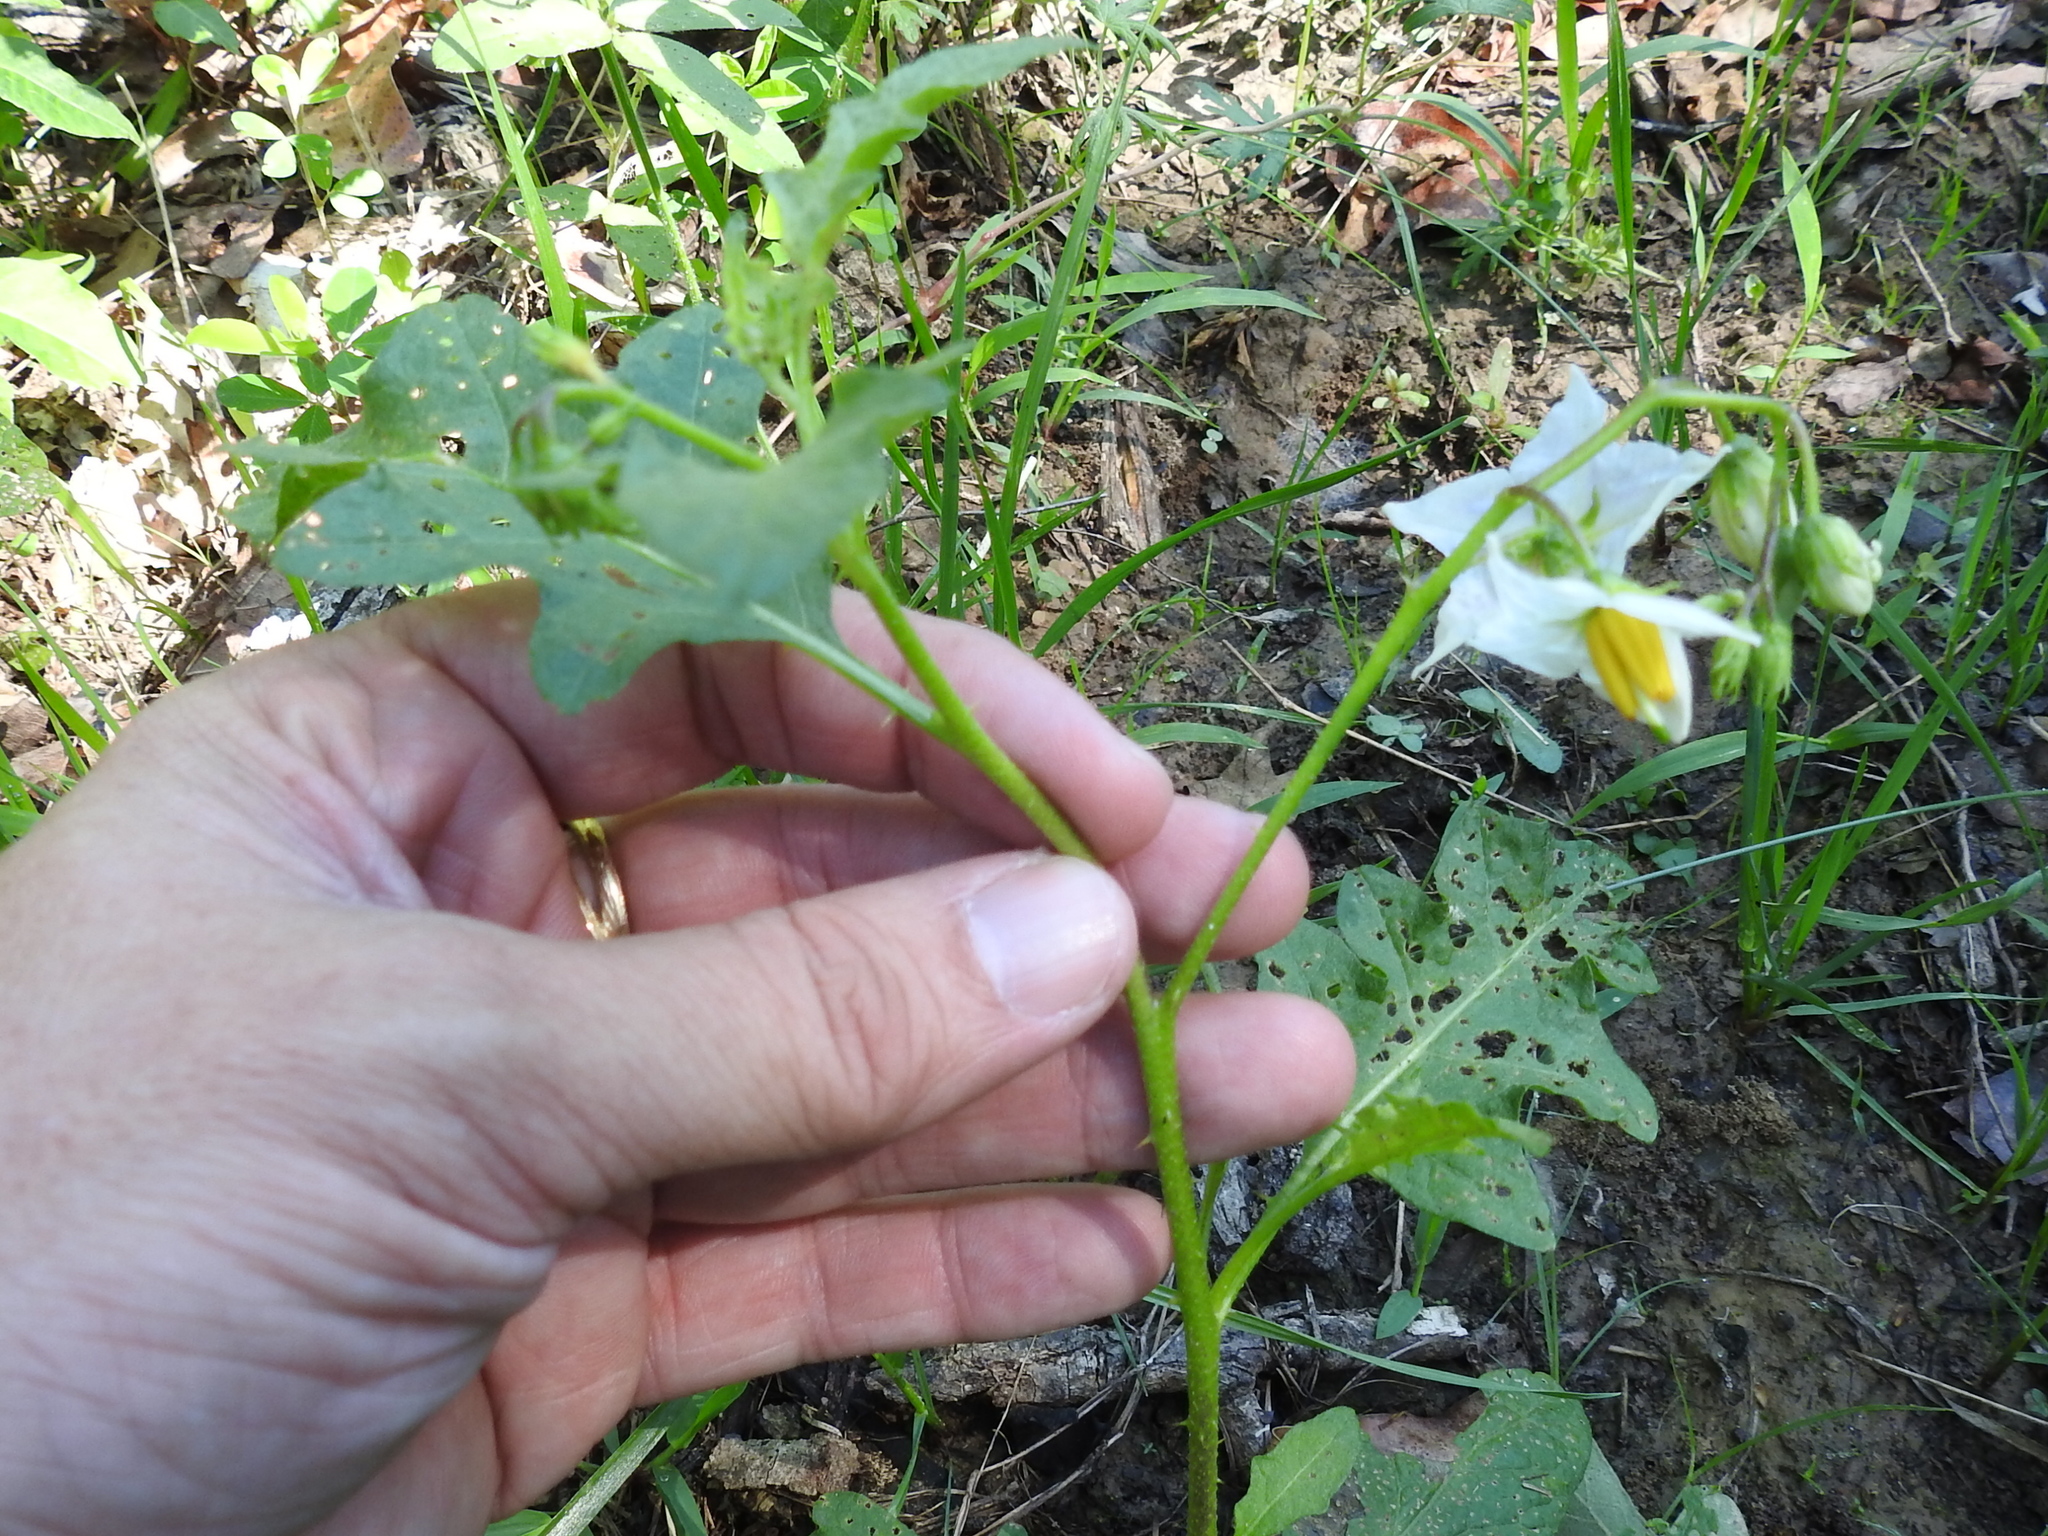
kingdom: Plantae
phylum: Tracheophyta
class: Magnoliopsida
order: Solanales
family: Solanaceae
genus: Solanum
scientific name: Solanum carolinense
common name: Horse-nettle
